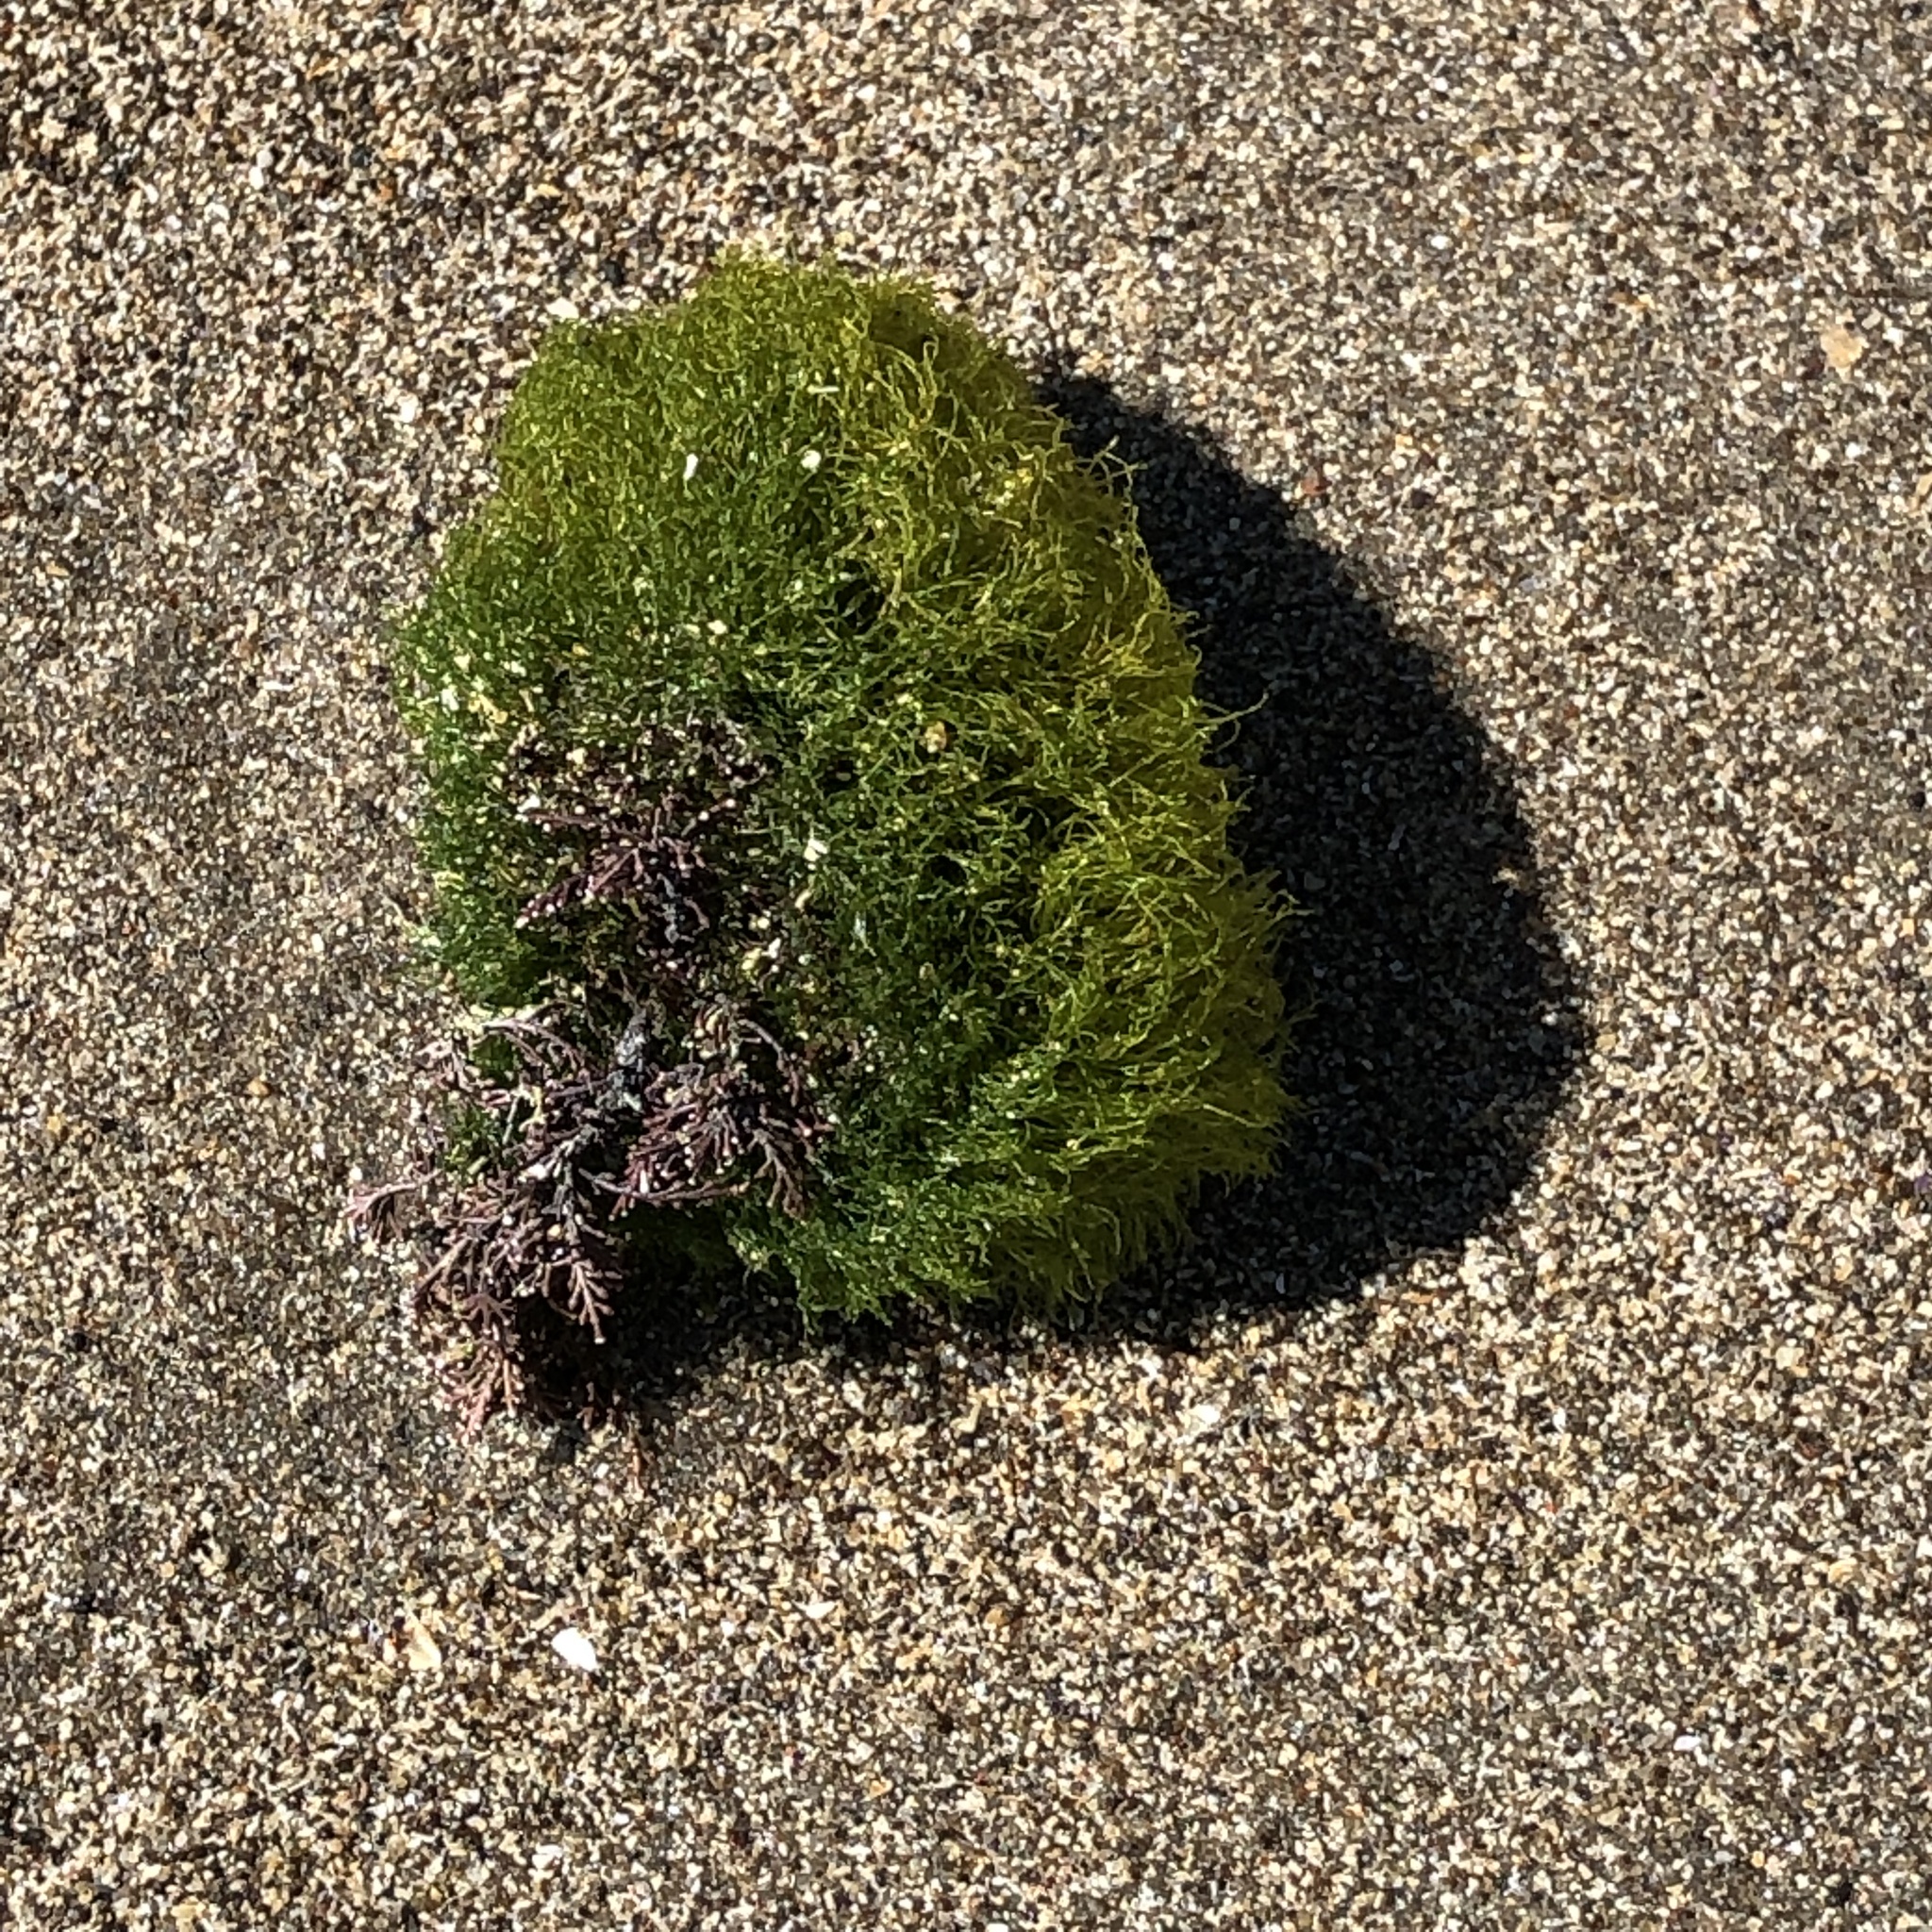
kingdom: Plantae
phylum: Chlorophyta
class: Ulvophyceae
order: Cladophorales
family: Cladophoraceae
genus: Cladophora
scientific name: Cladophora columbiana
